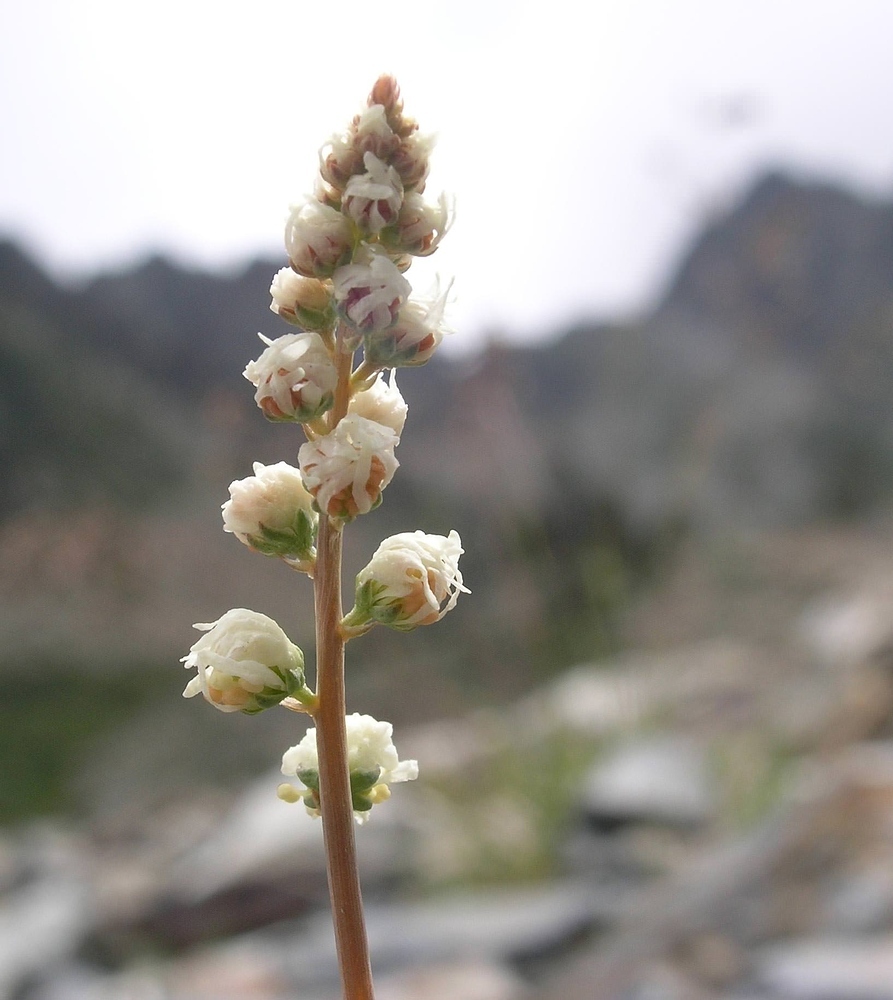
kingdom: Plantae
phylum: Tracheophyta
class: Magnoliopsida
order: Brassicales
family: Resedaceae
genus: Reseda
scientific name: Reseda glauca
